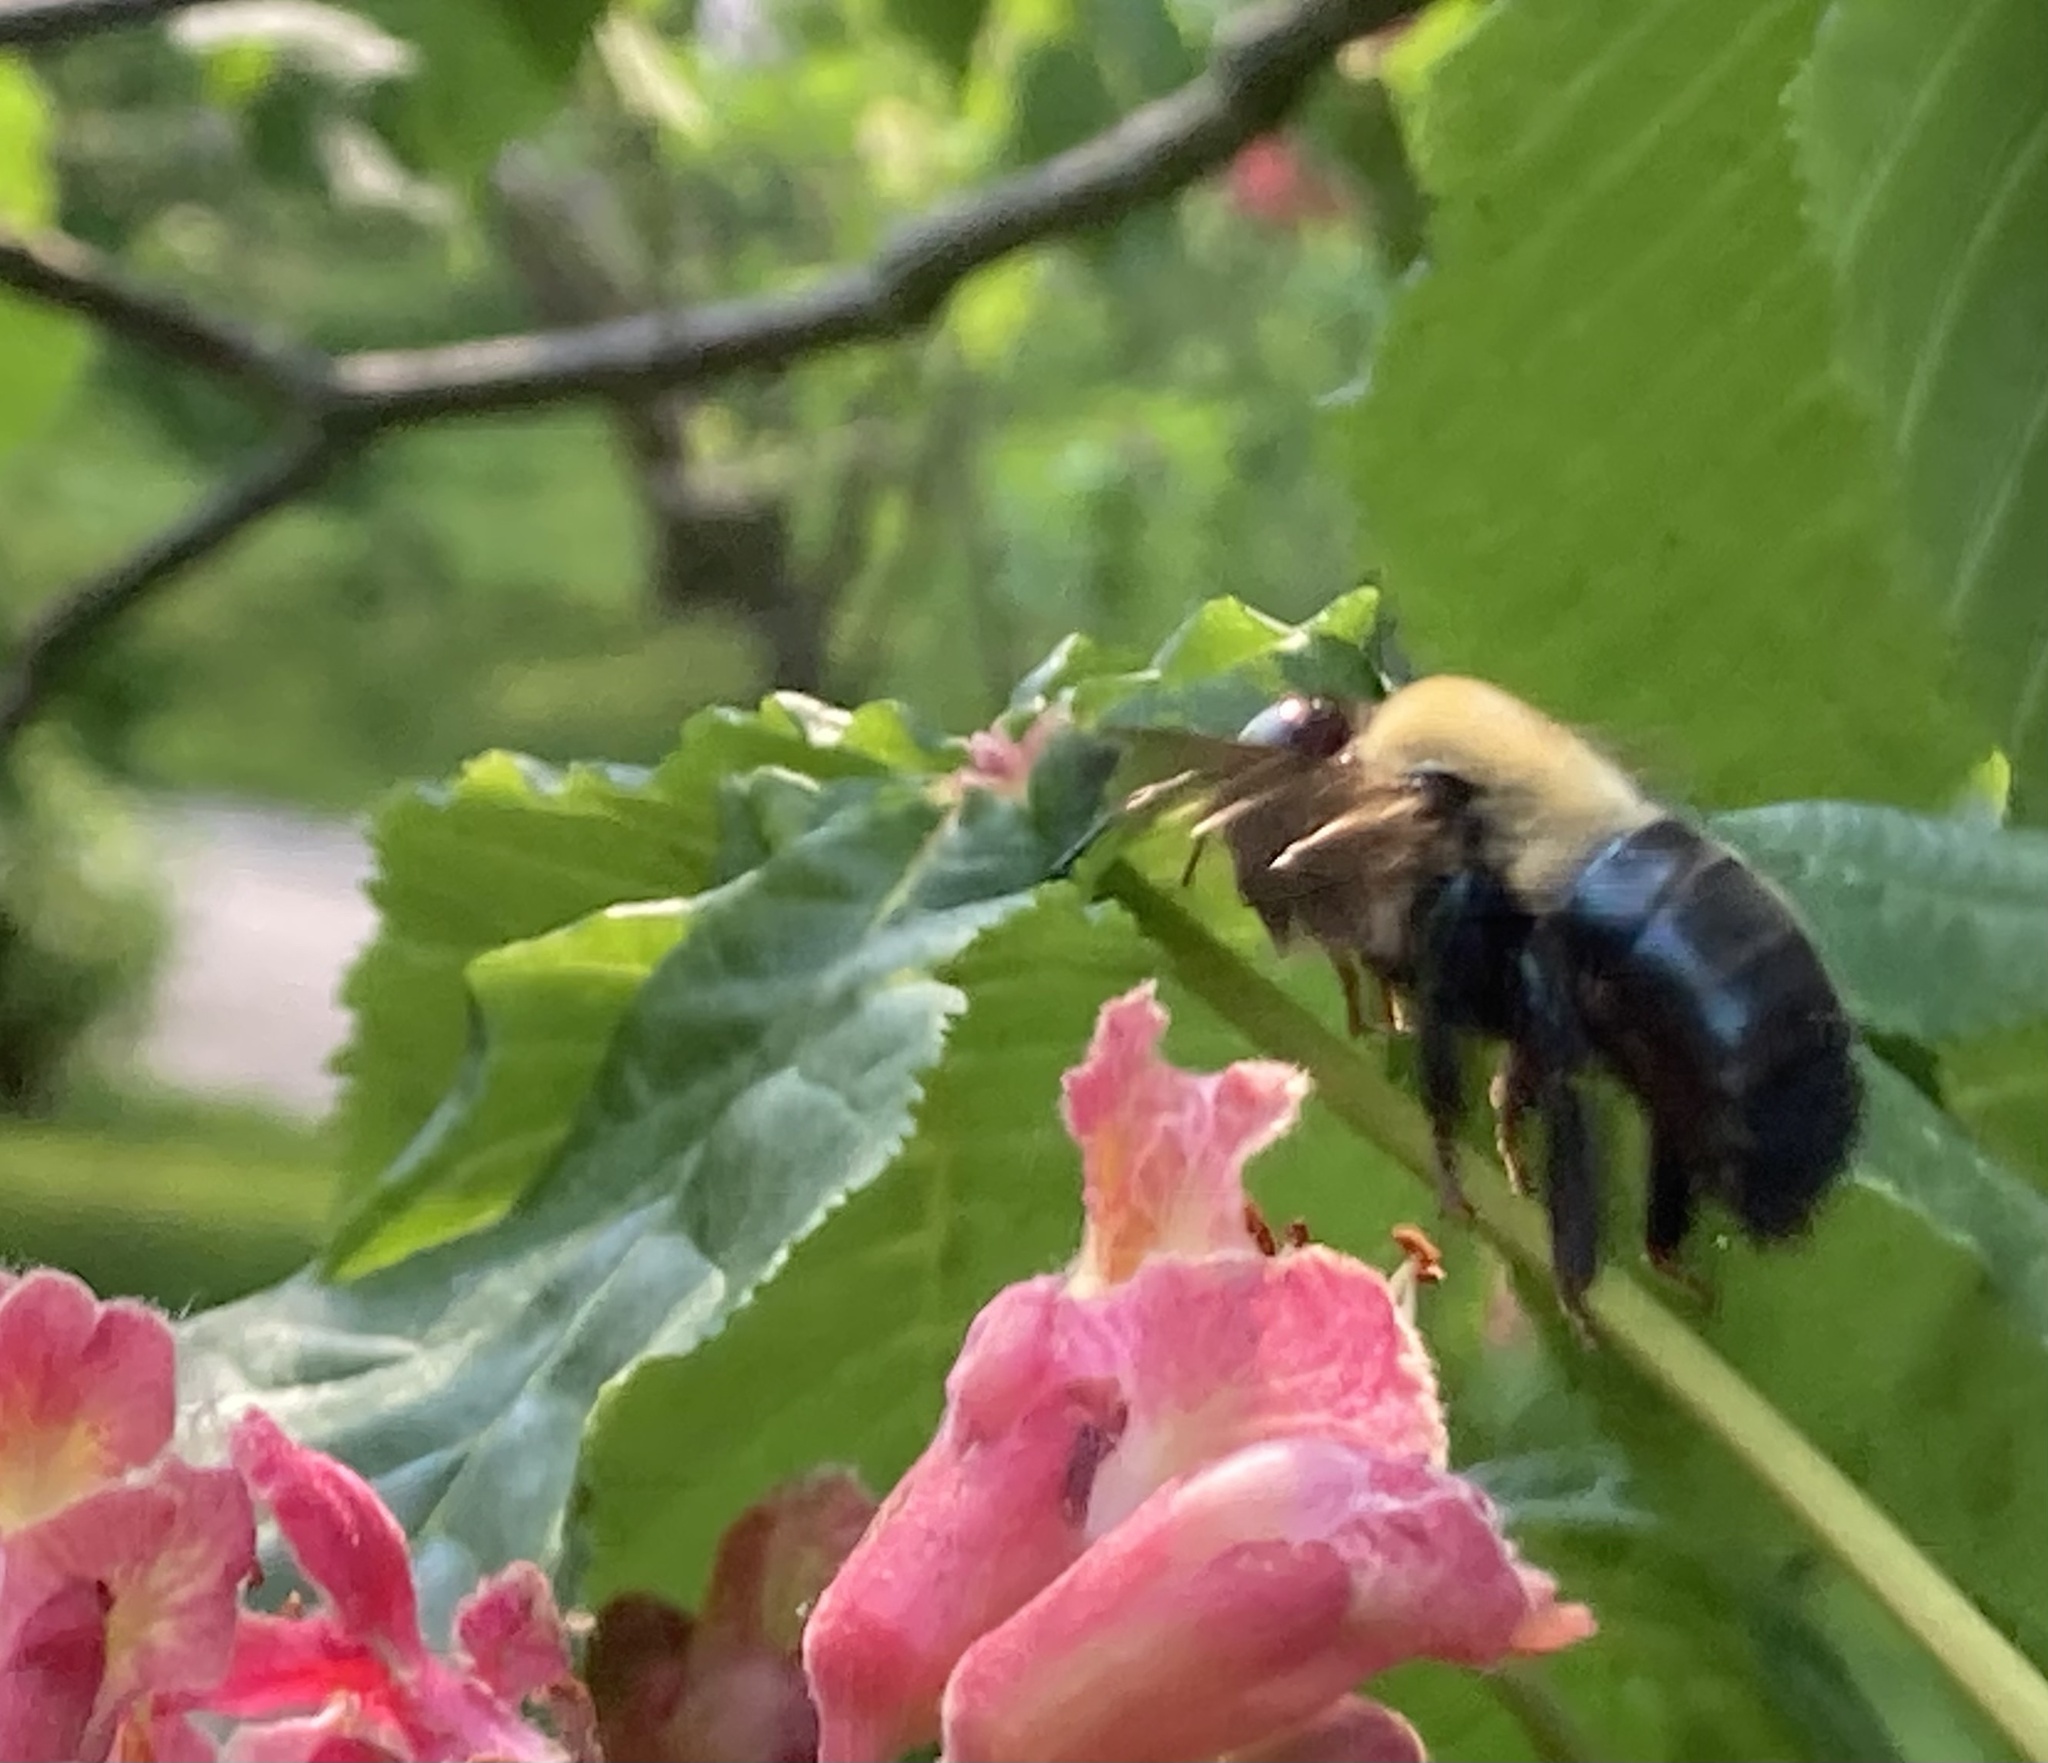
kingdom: Animalia
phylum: Arthropoda
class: Insecta
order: Hymenoptera
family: Apidae
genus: Xylocopa
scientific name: Xylocopa virginica
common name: Carpenter bee
